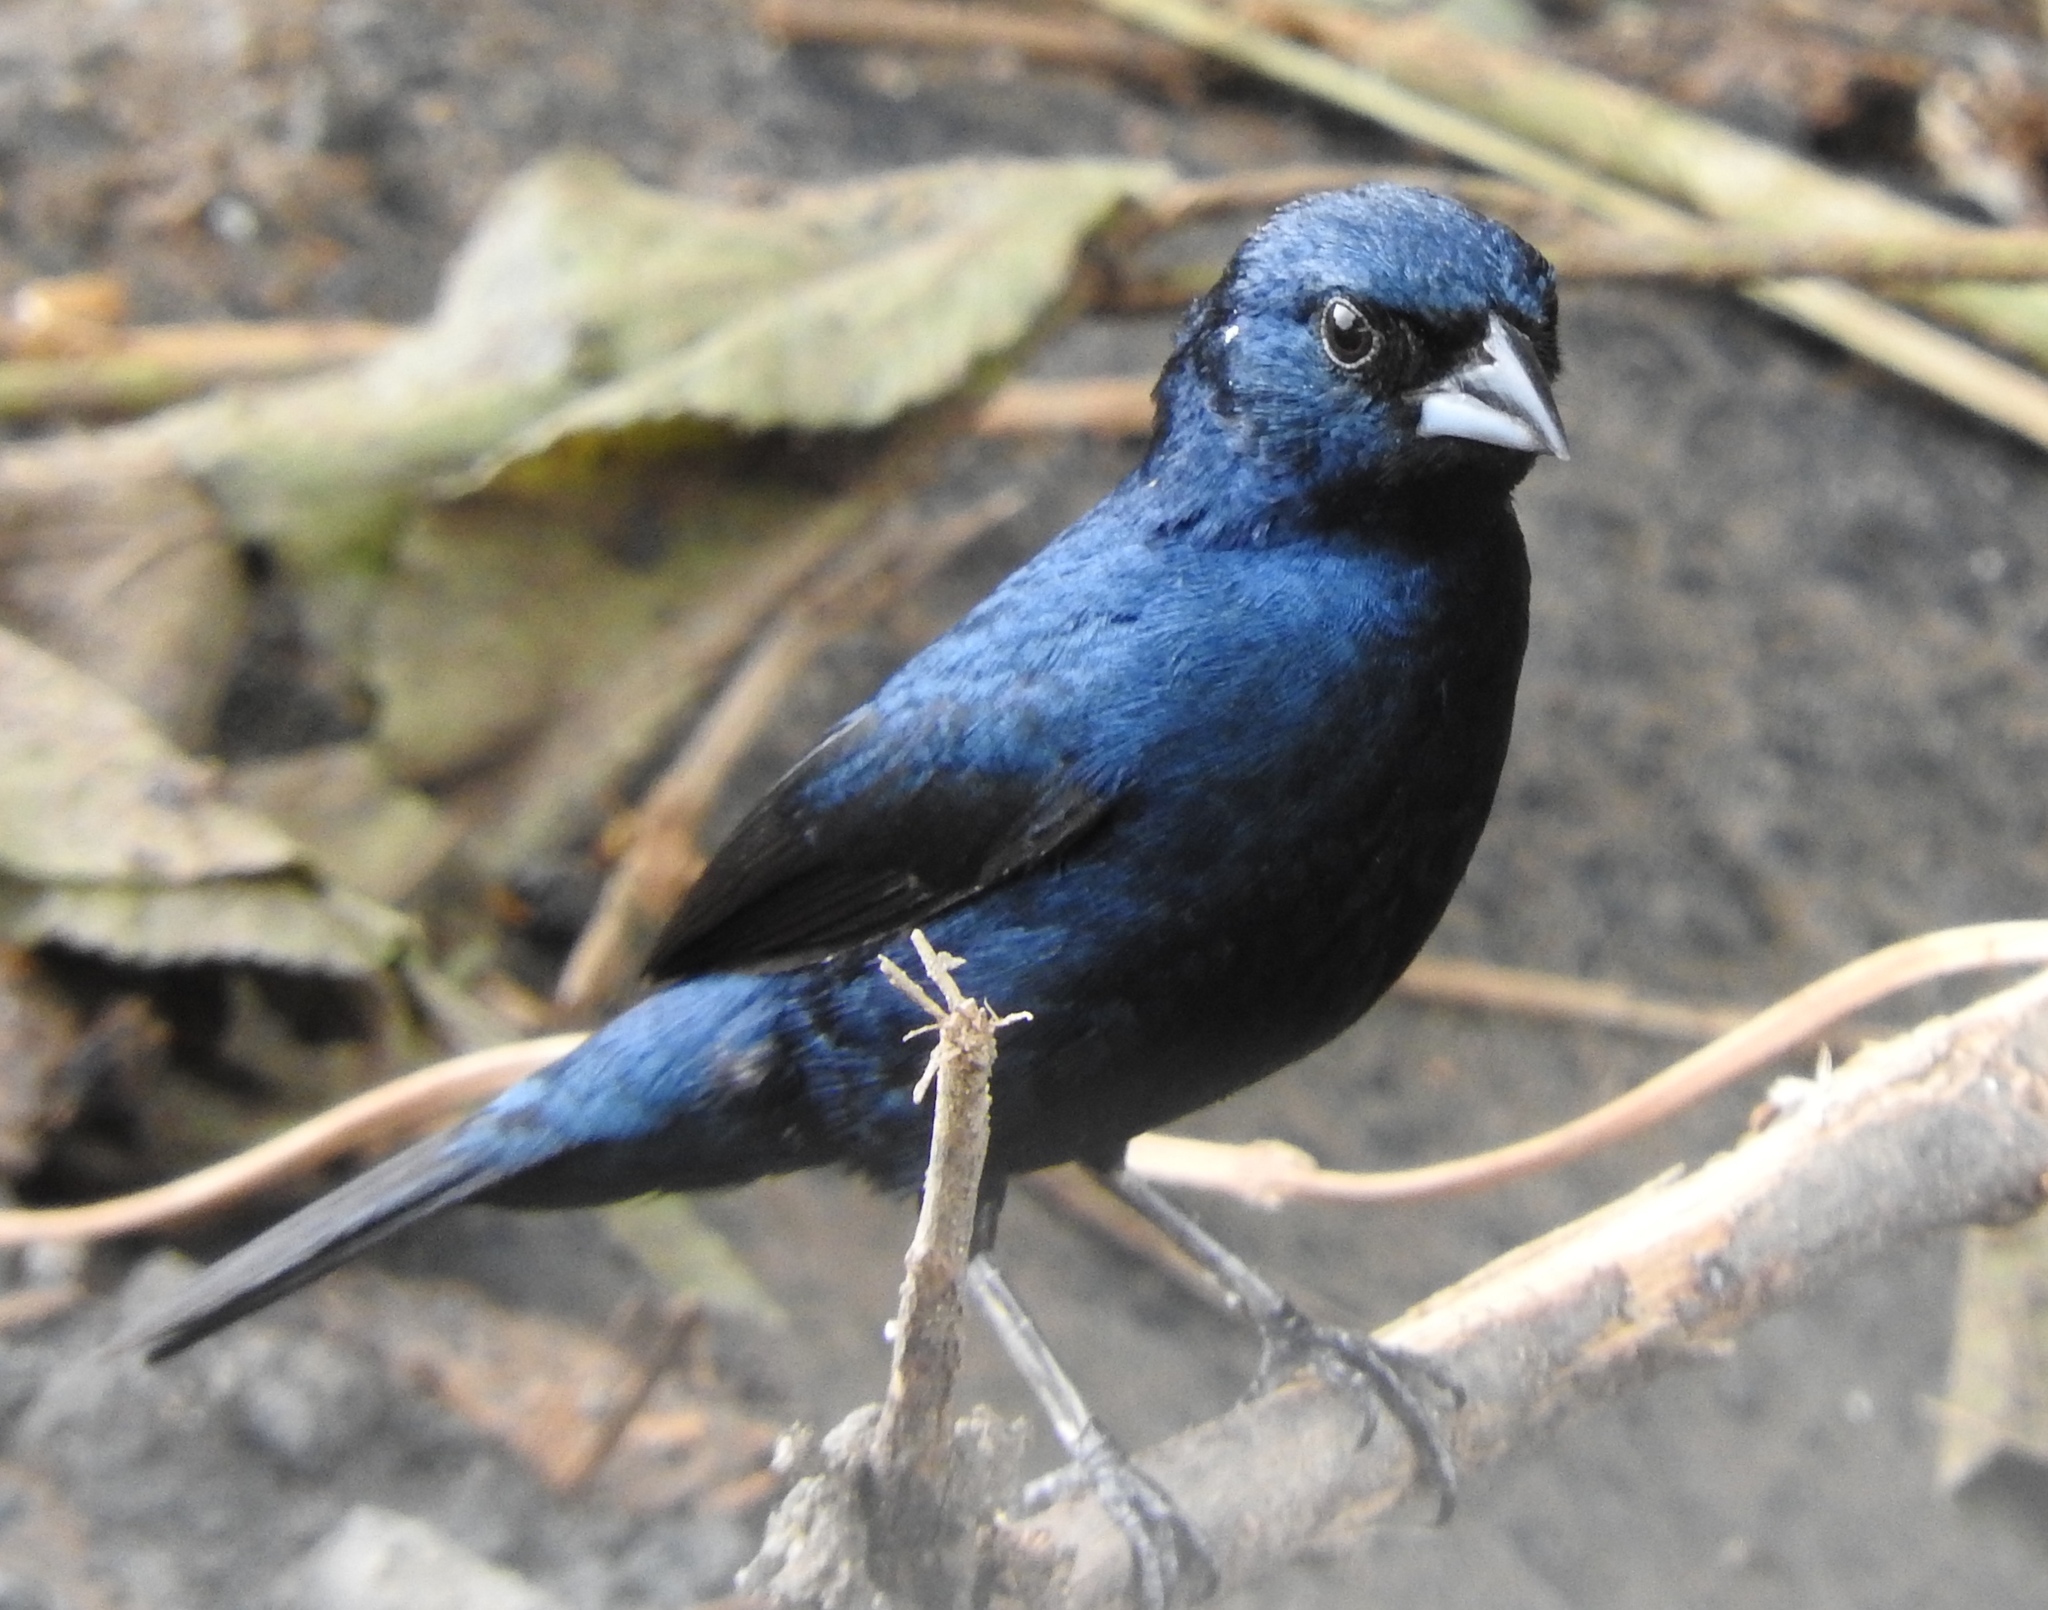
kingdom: Animalia
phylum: Chordata
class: Aves
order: Passeriformes
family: Thraupidae
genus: Volatinia
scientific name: Volatinia jacarina
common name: Blue-black grassquit
